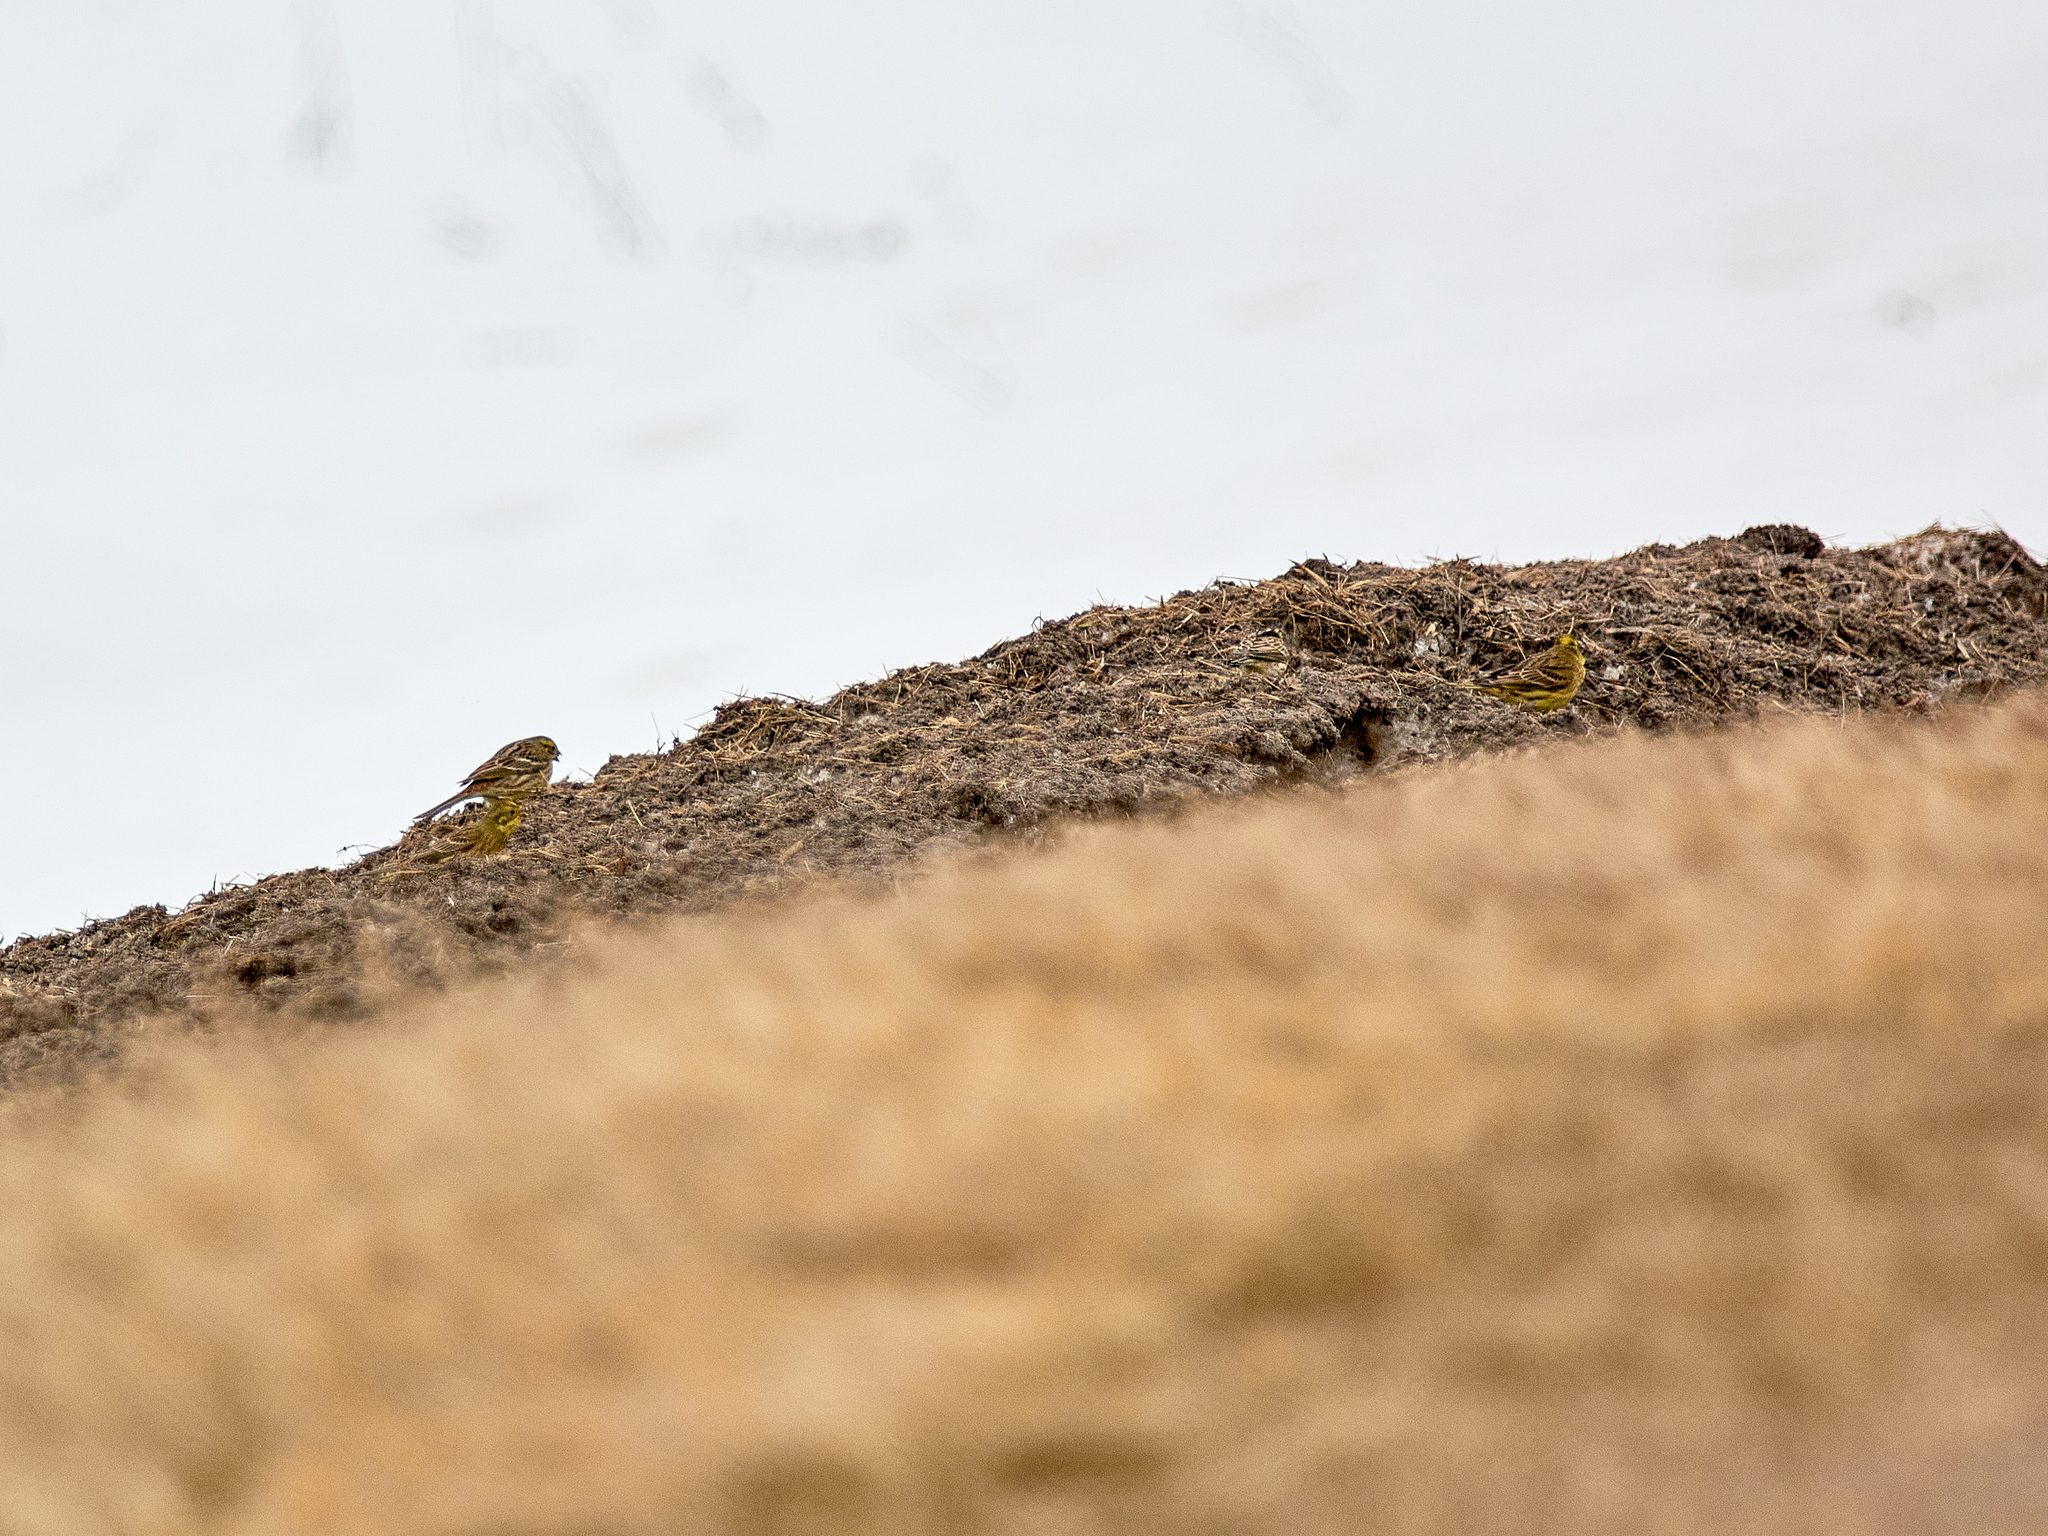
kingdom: Animalia
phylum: Chordata
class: Aves
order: Passeriformes
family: Emberizidae
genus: Emberiza
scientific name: Emberiza citrinella
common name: Yellowhammer
